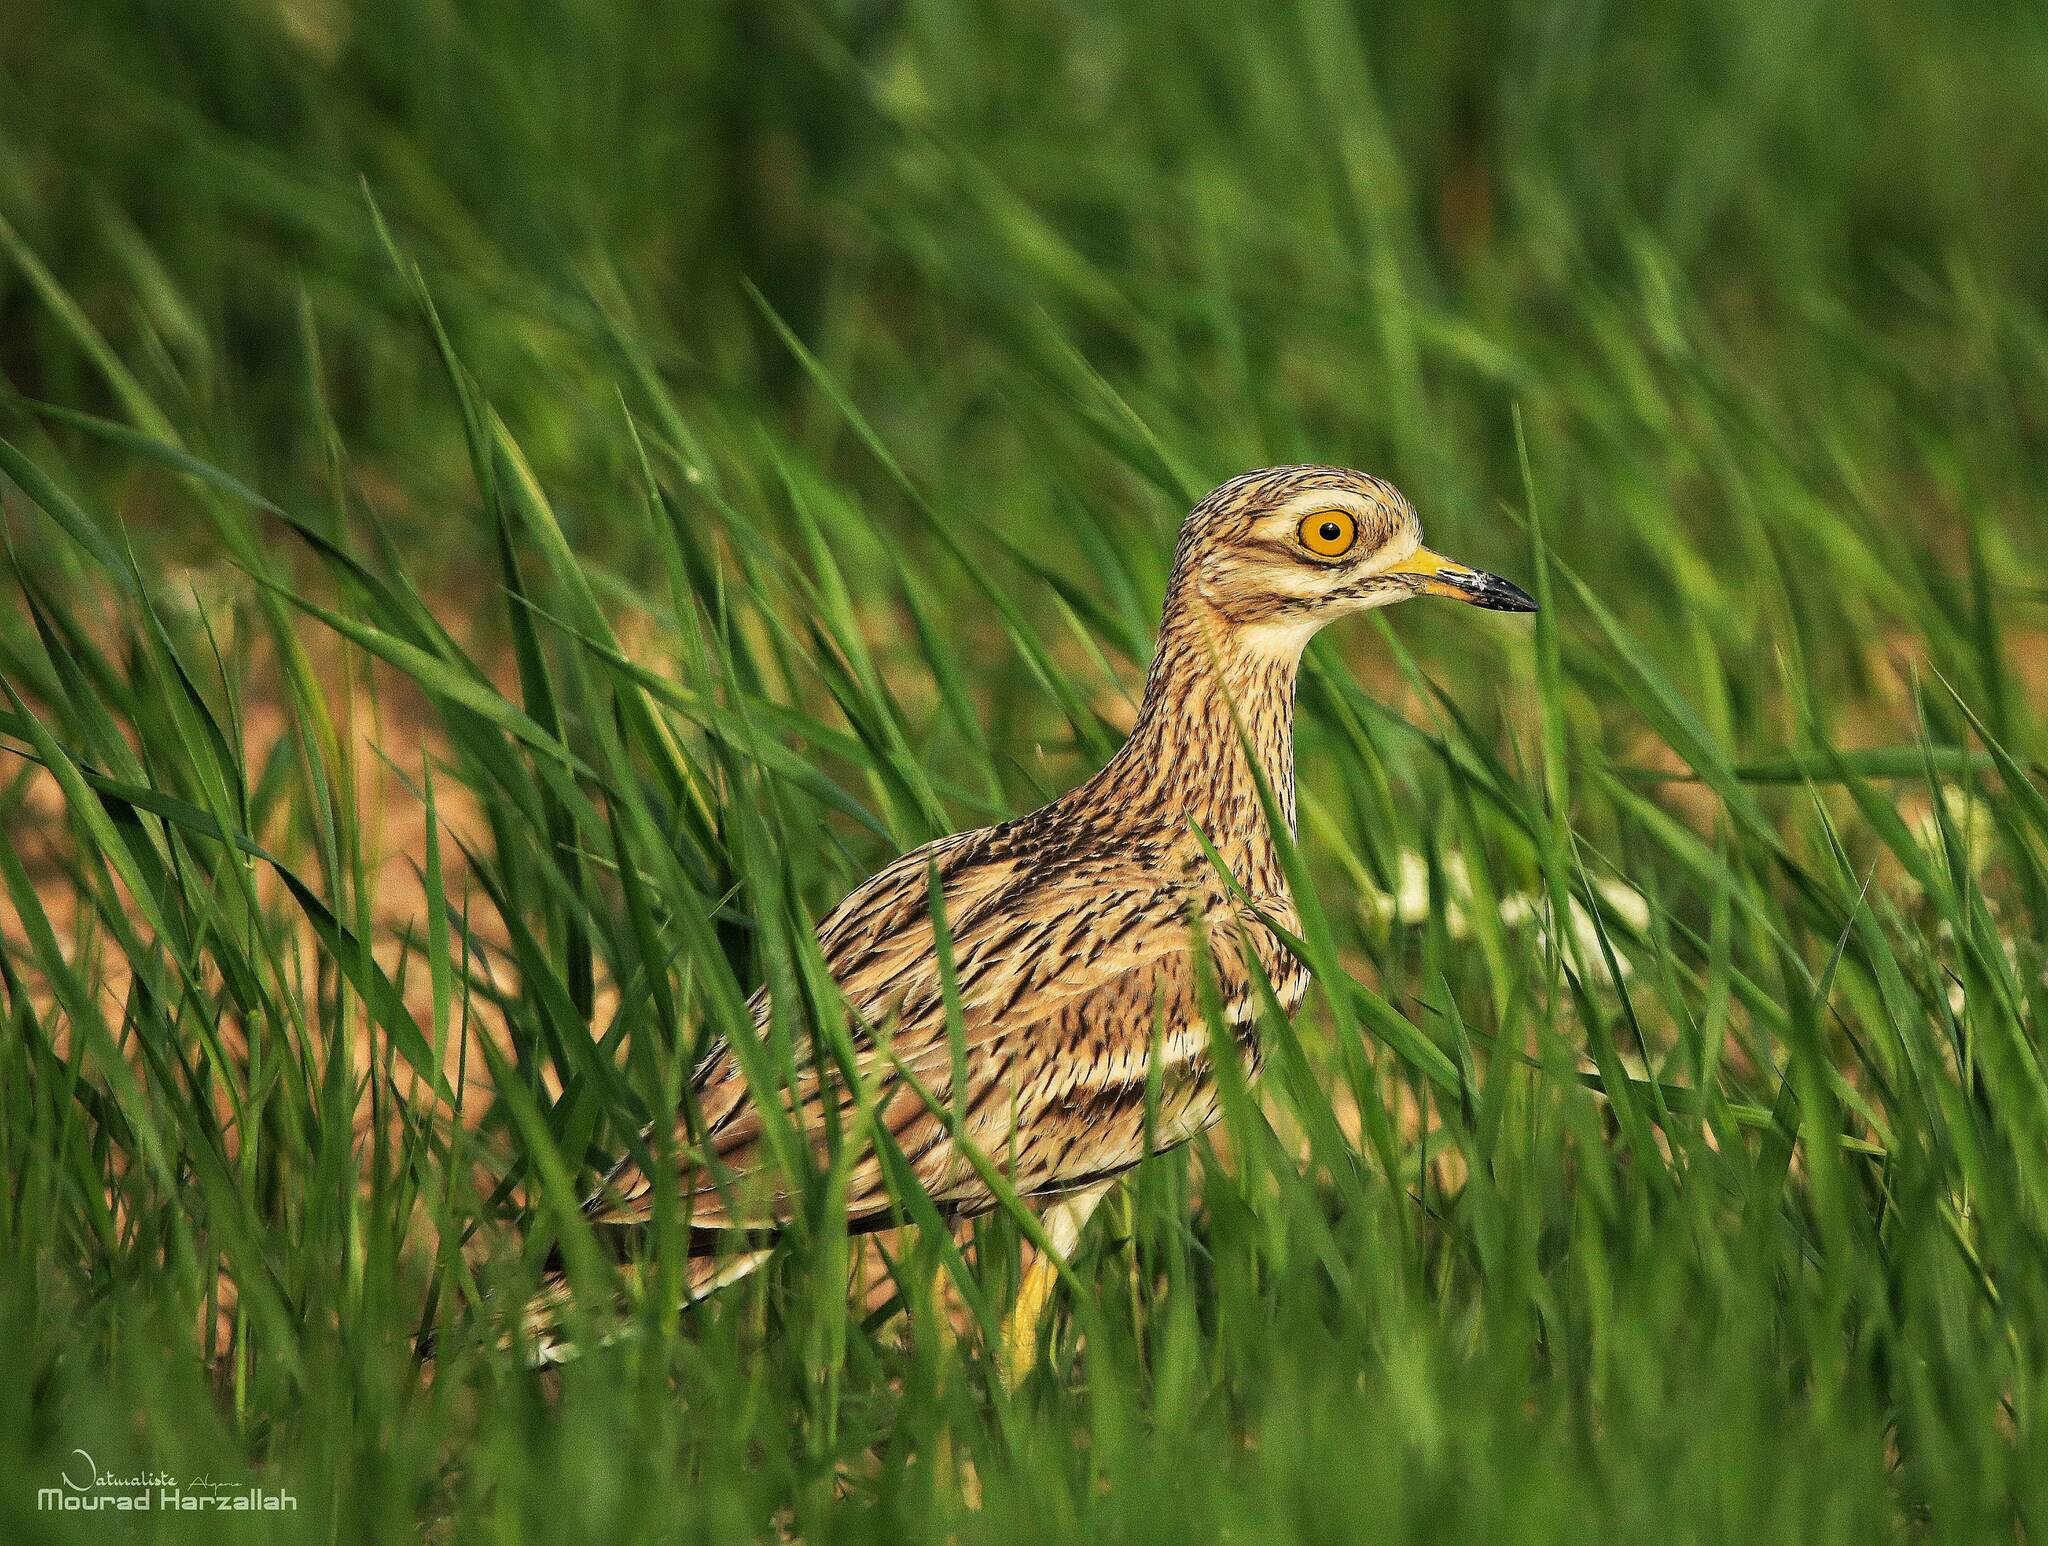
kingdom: Animalia
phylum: Chordata
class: Aves
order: Charadriiformes
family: Burhinidae
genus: Burhinus
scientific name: Burhinus oedicnemus
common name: Eurasian stone-curlew
